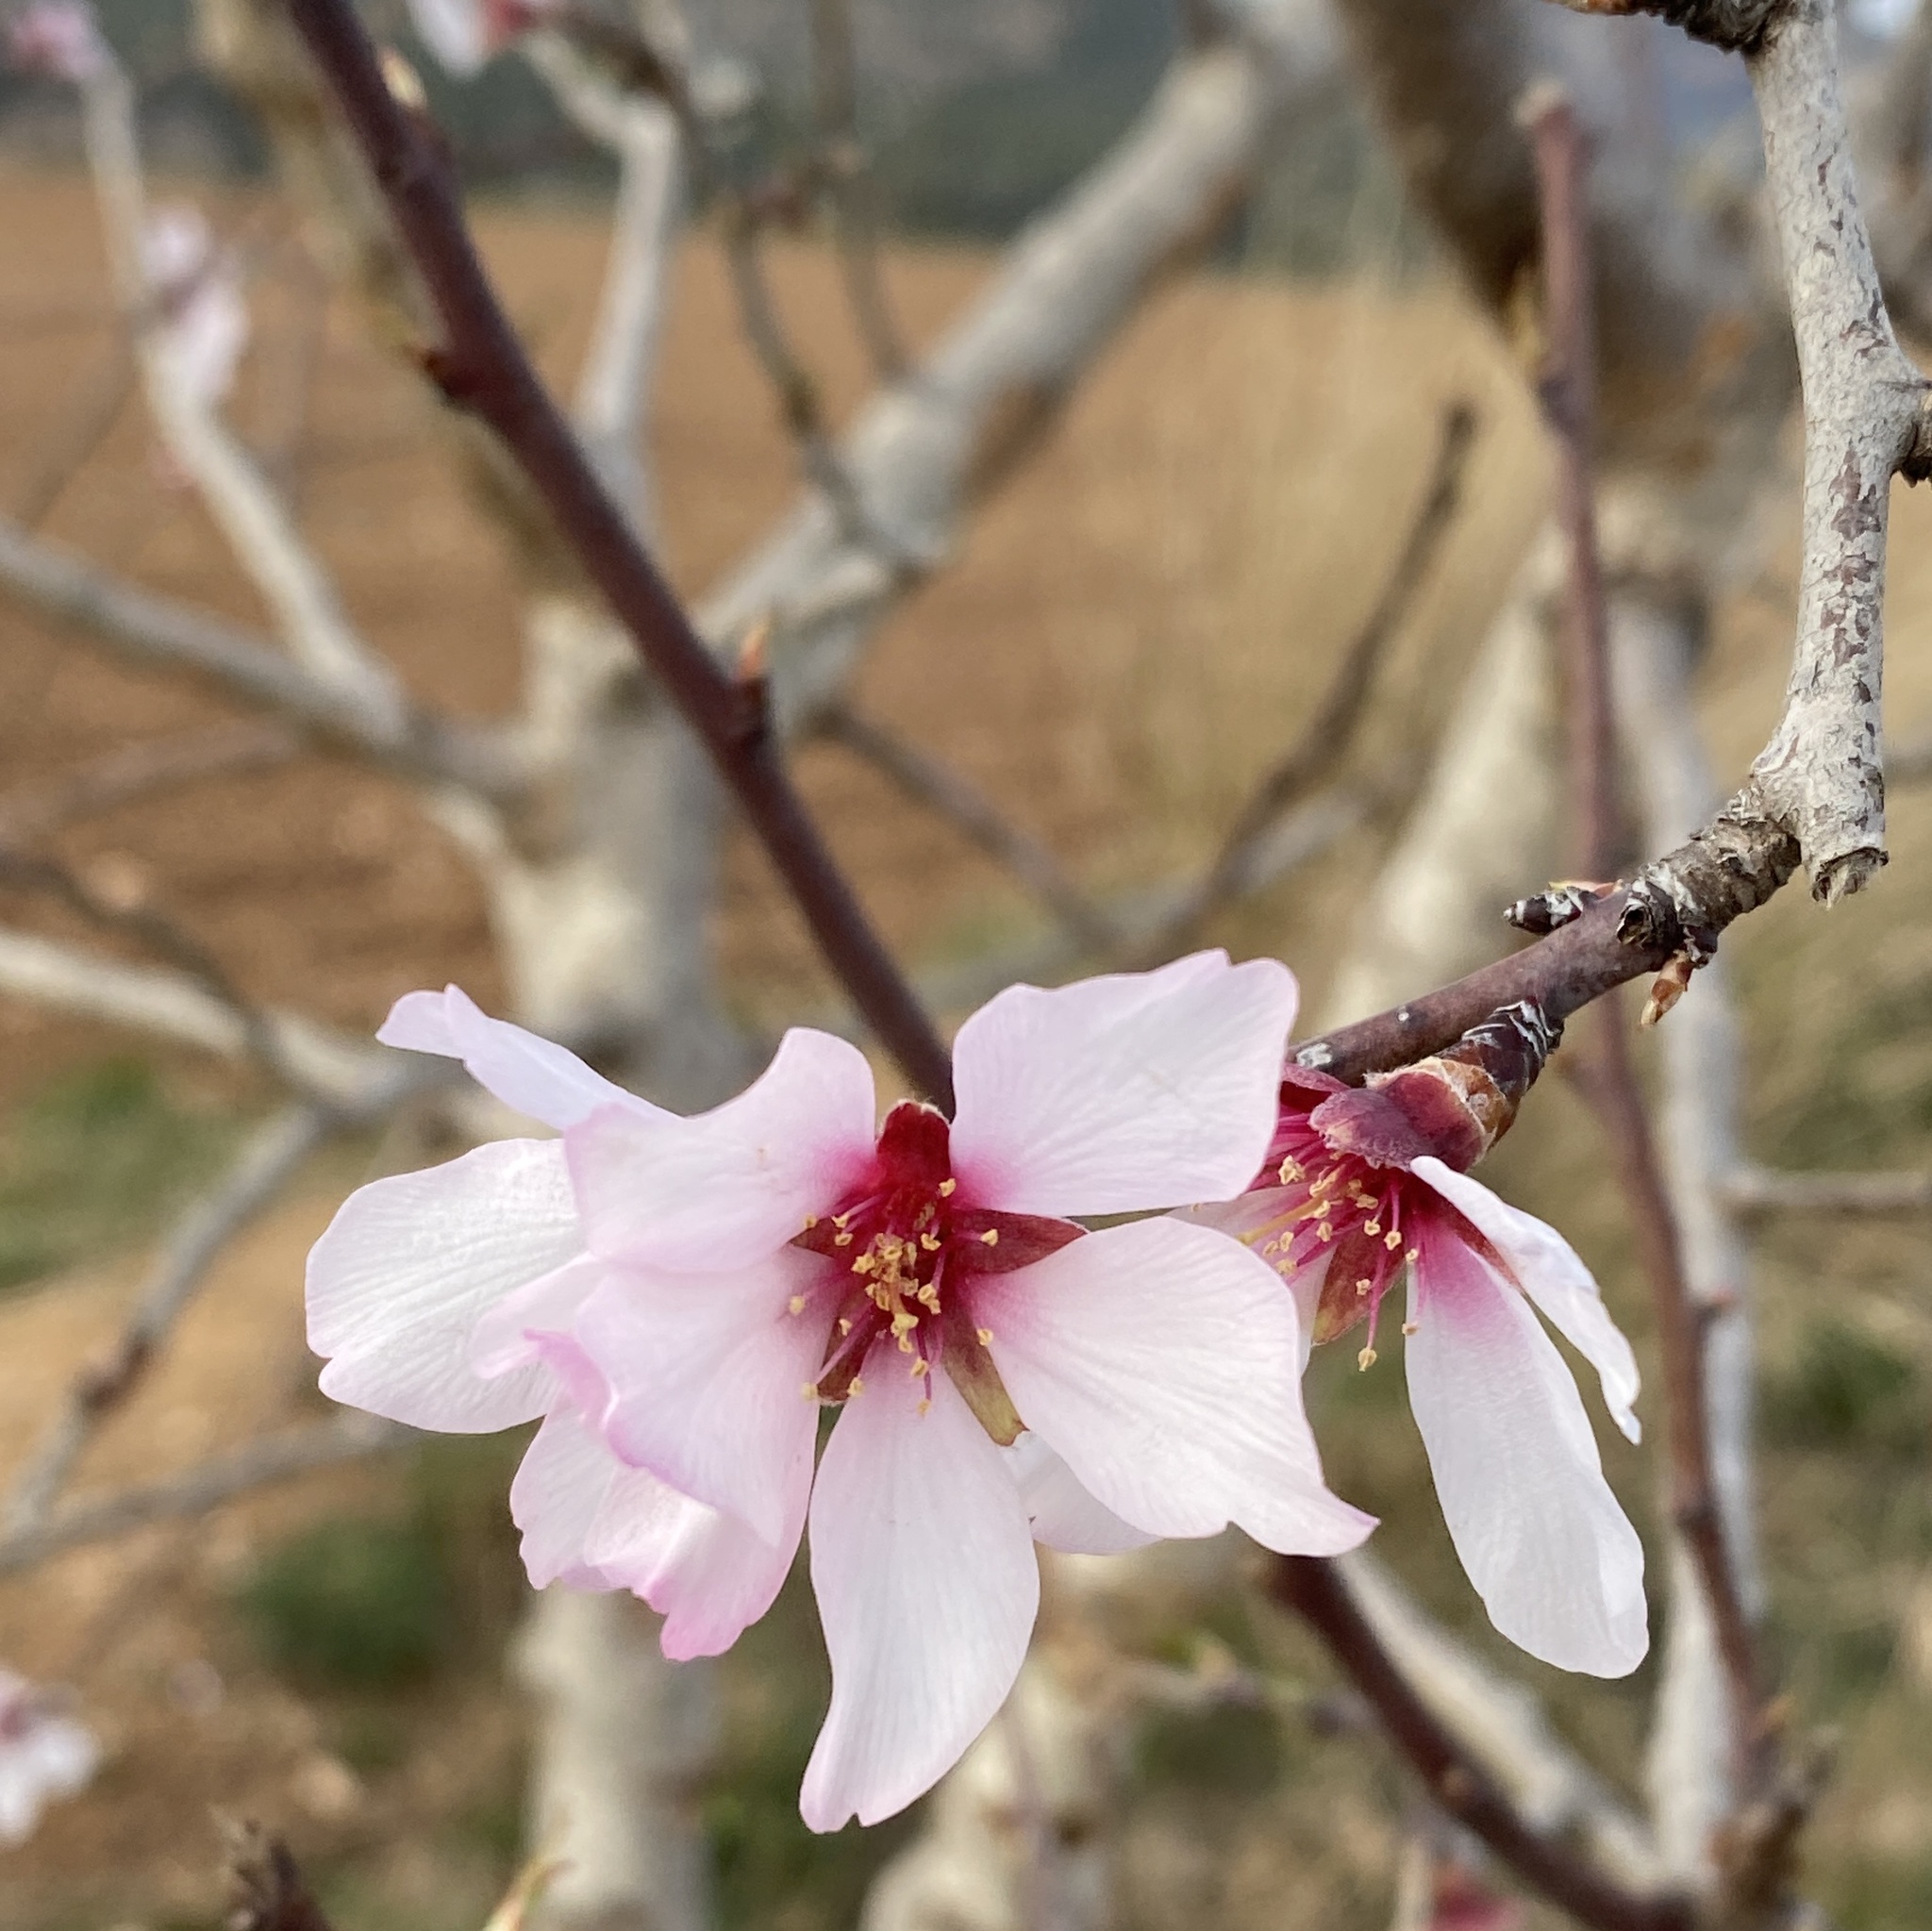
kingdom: Plantae
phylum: Tracheophyta
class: Magnoliopsida
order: Rosales
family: Rosaceae
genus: Prunus
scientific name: Prunus amygdalus
